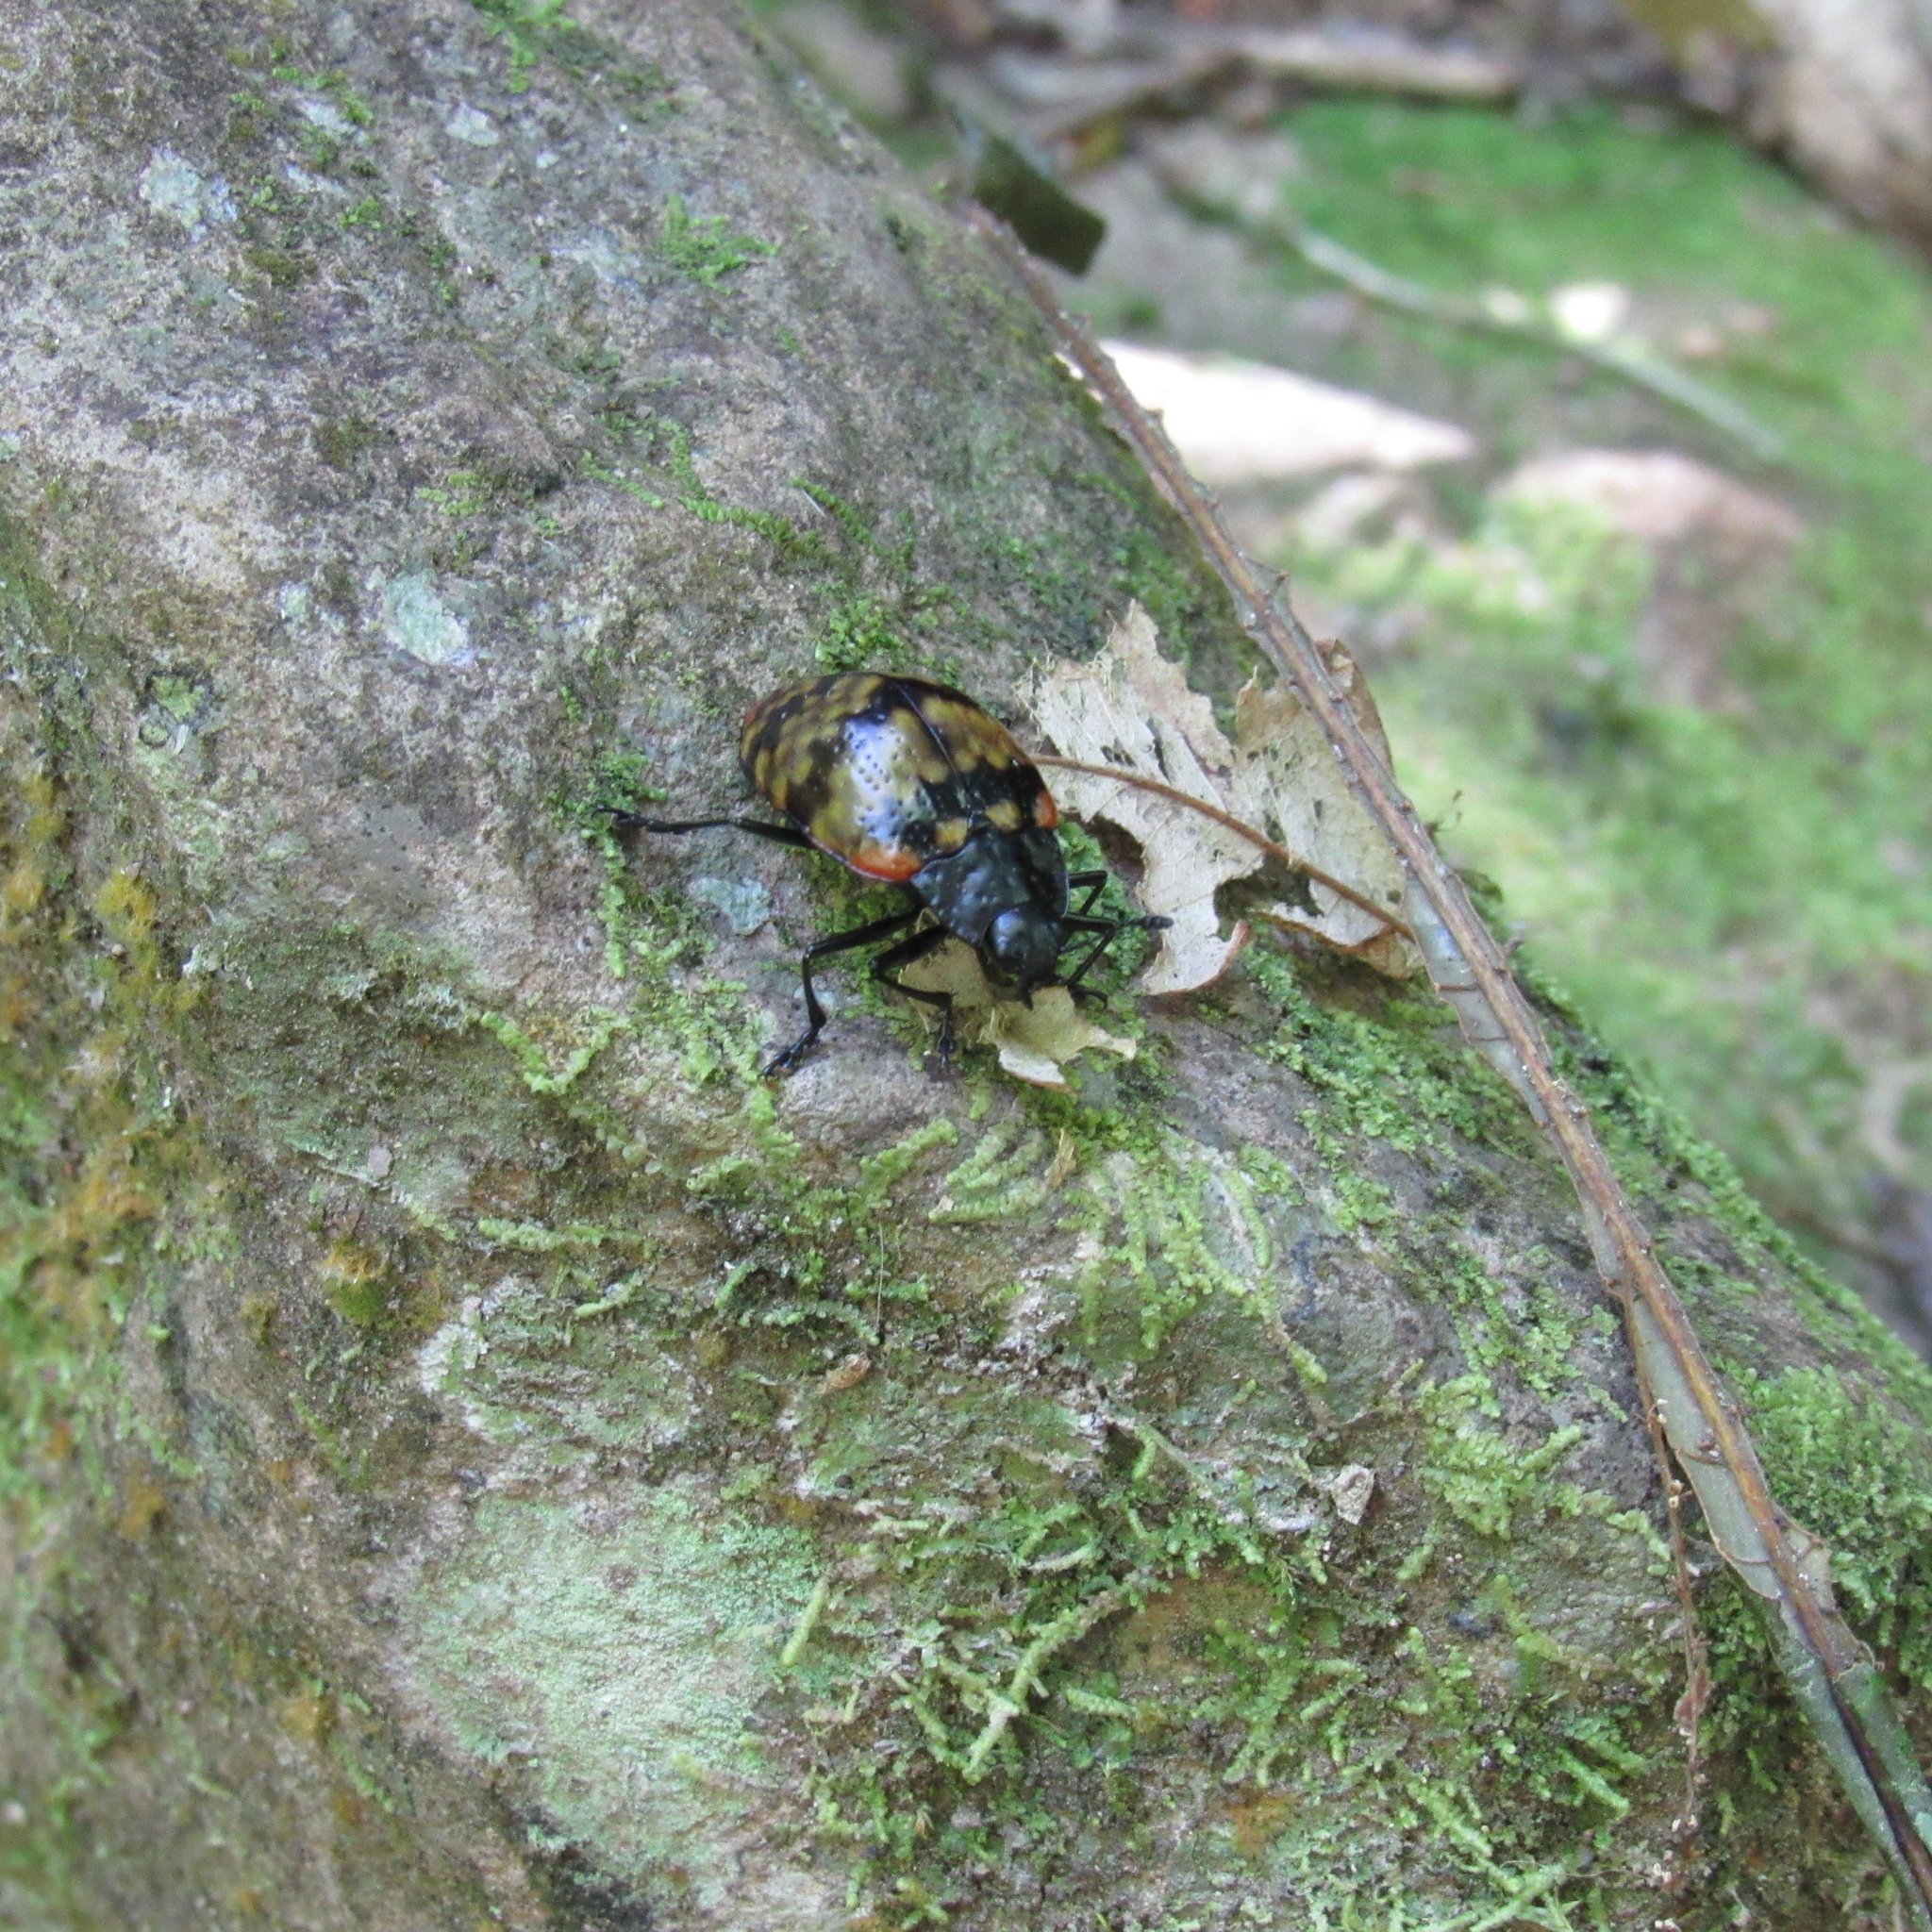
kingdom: Animalia
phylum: Arthropoda
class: Insecta
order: Coleoptera
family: Erotylidae
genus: Erotylus
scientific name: Erotylus
